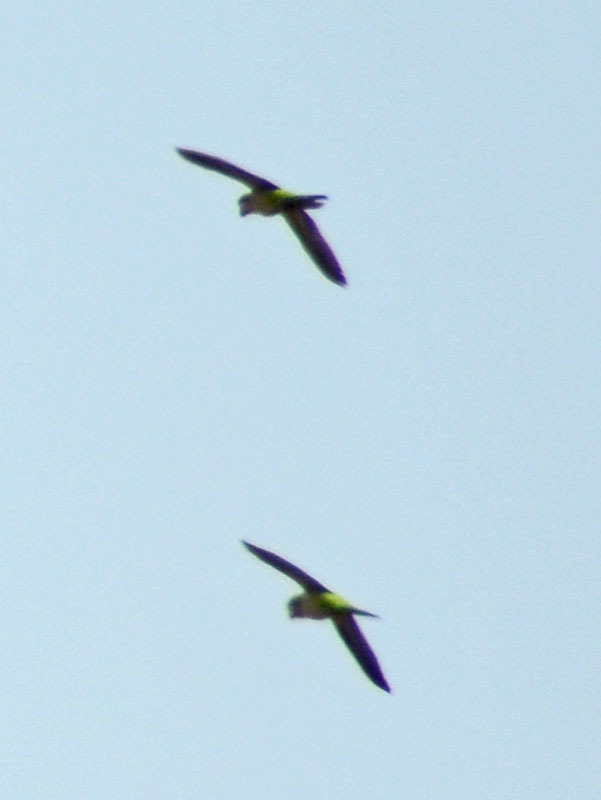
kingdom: Animalia
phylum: Chordata
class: Aves
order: Psittaciformes
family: Psittacidae
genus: Myiopsitta
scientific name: Myiopsitta monachus
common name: Monk parakeet
